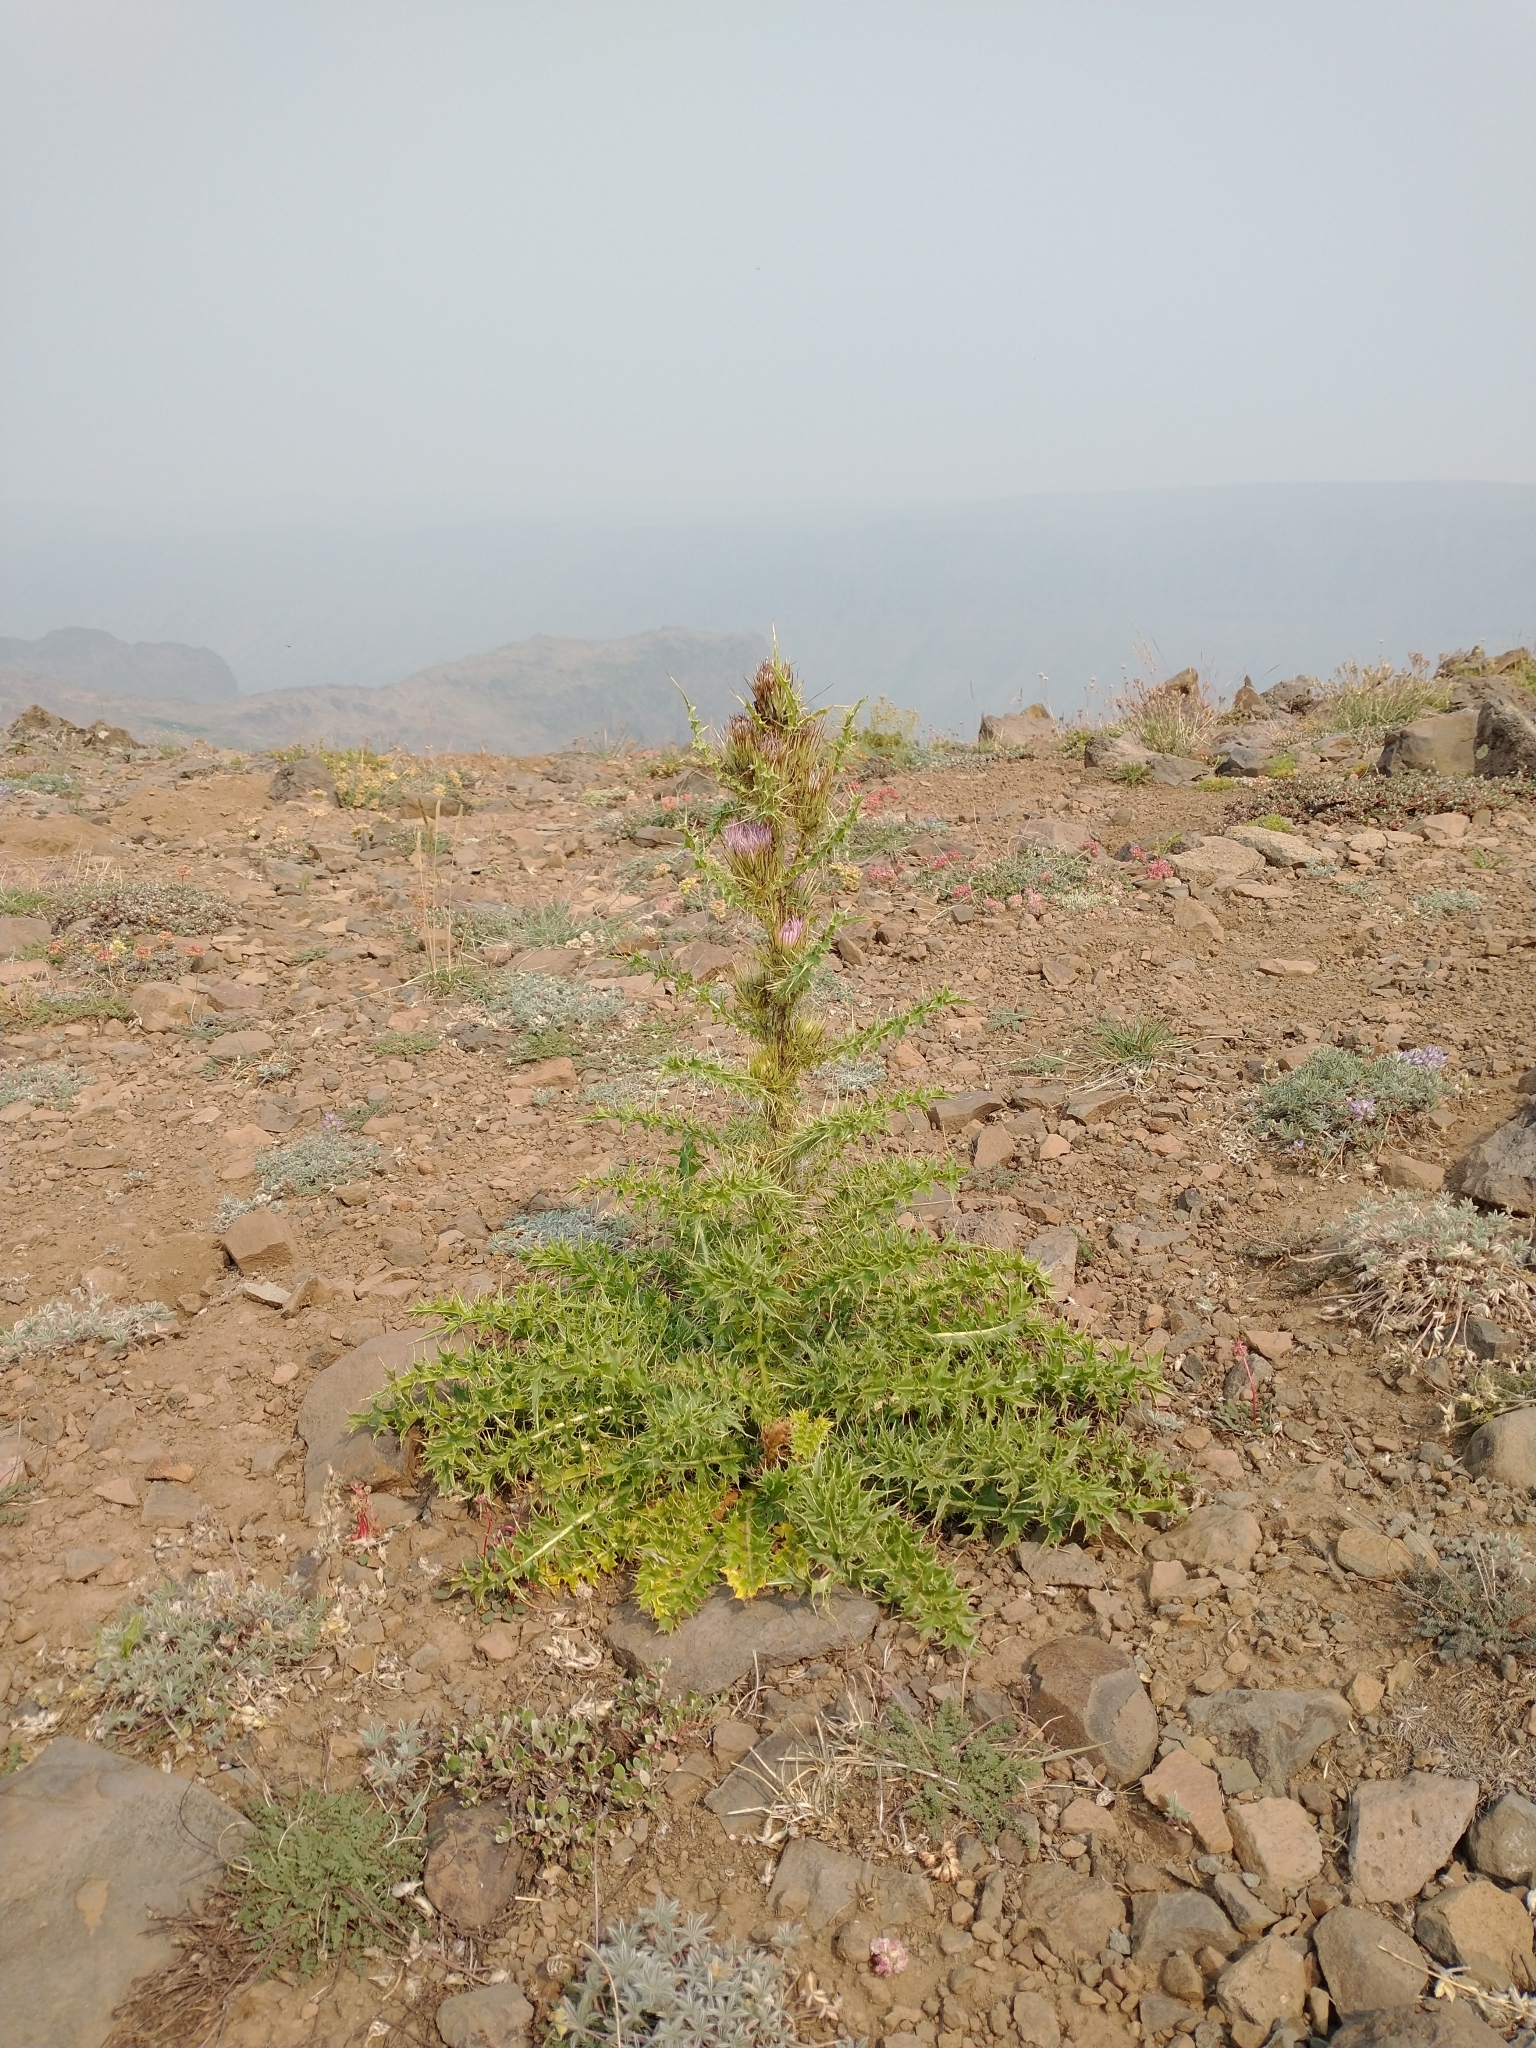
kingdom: Plantae
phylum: Tracheophyta
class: Magnoliopsida
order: Asterales
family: Asteraceae
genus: Cirsium
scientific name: Cirsium peckii
